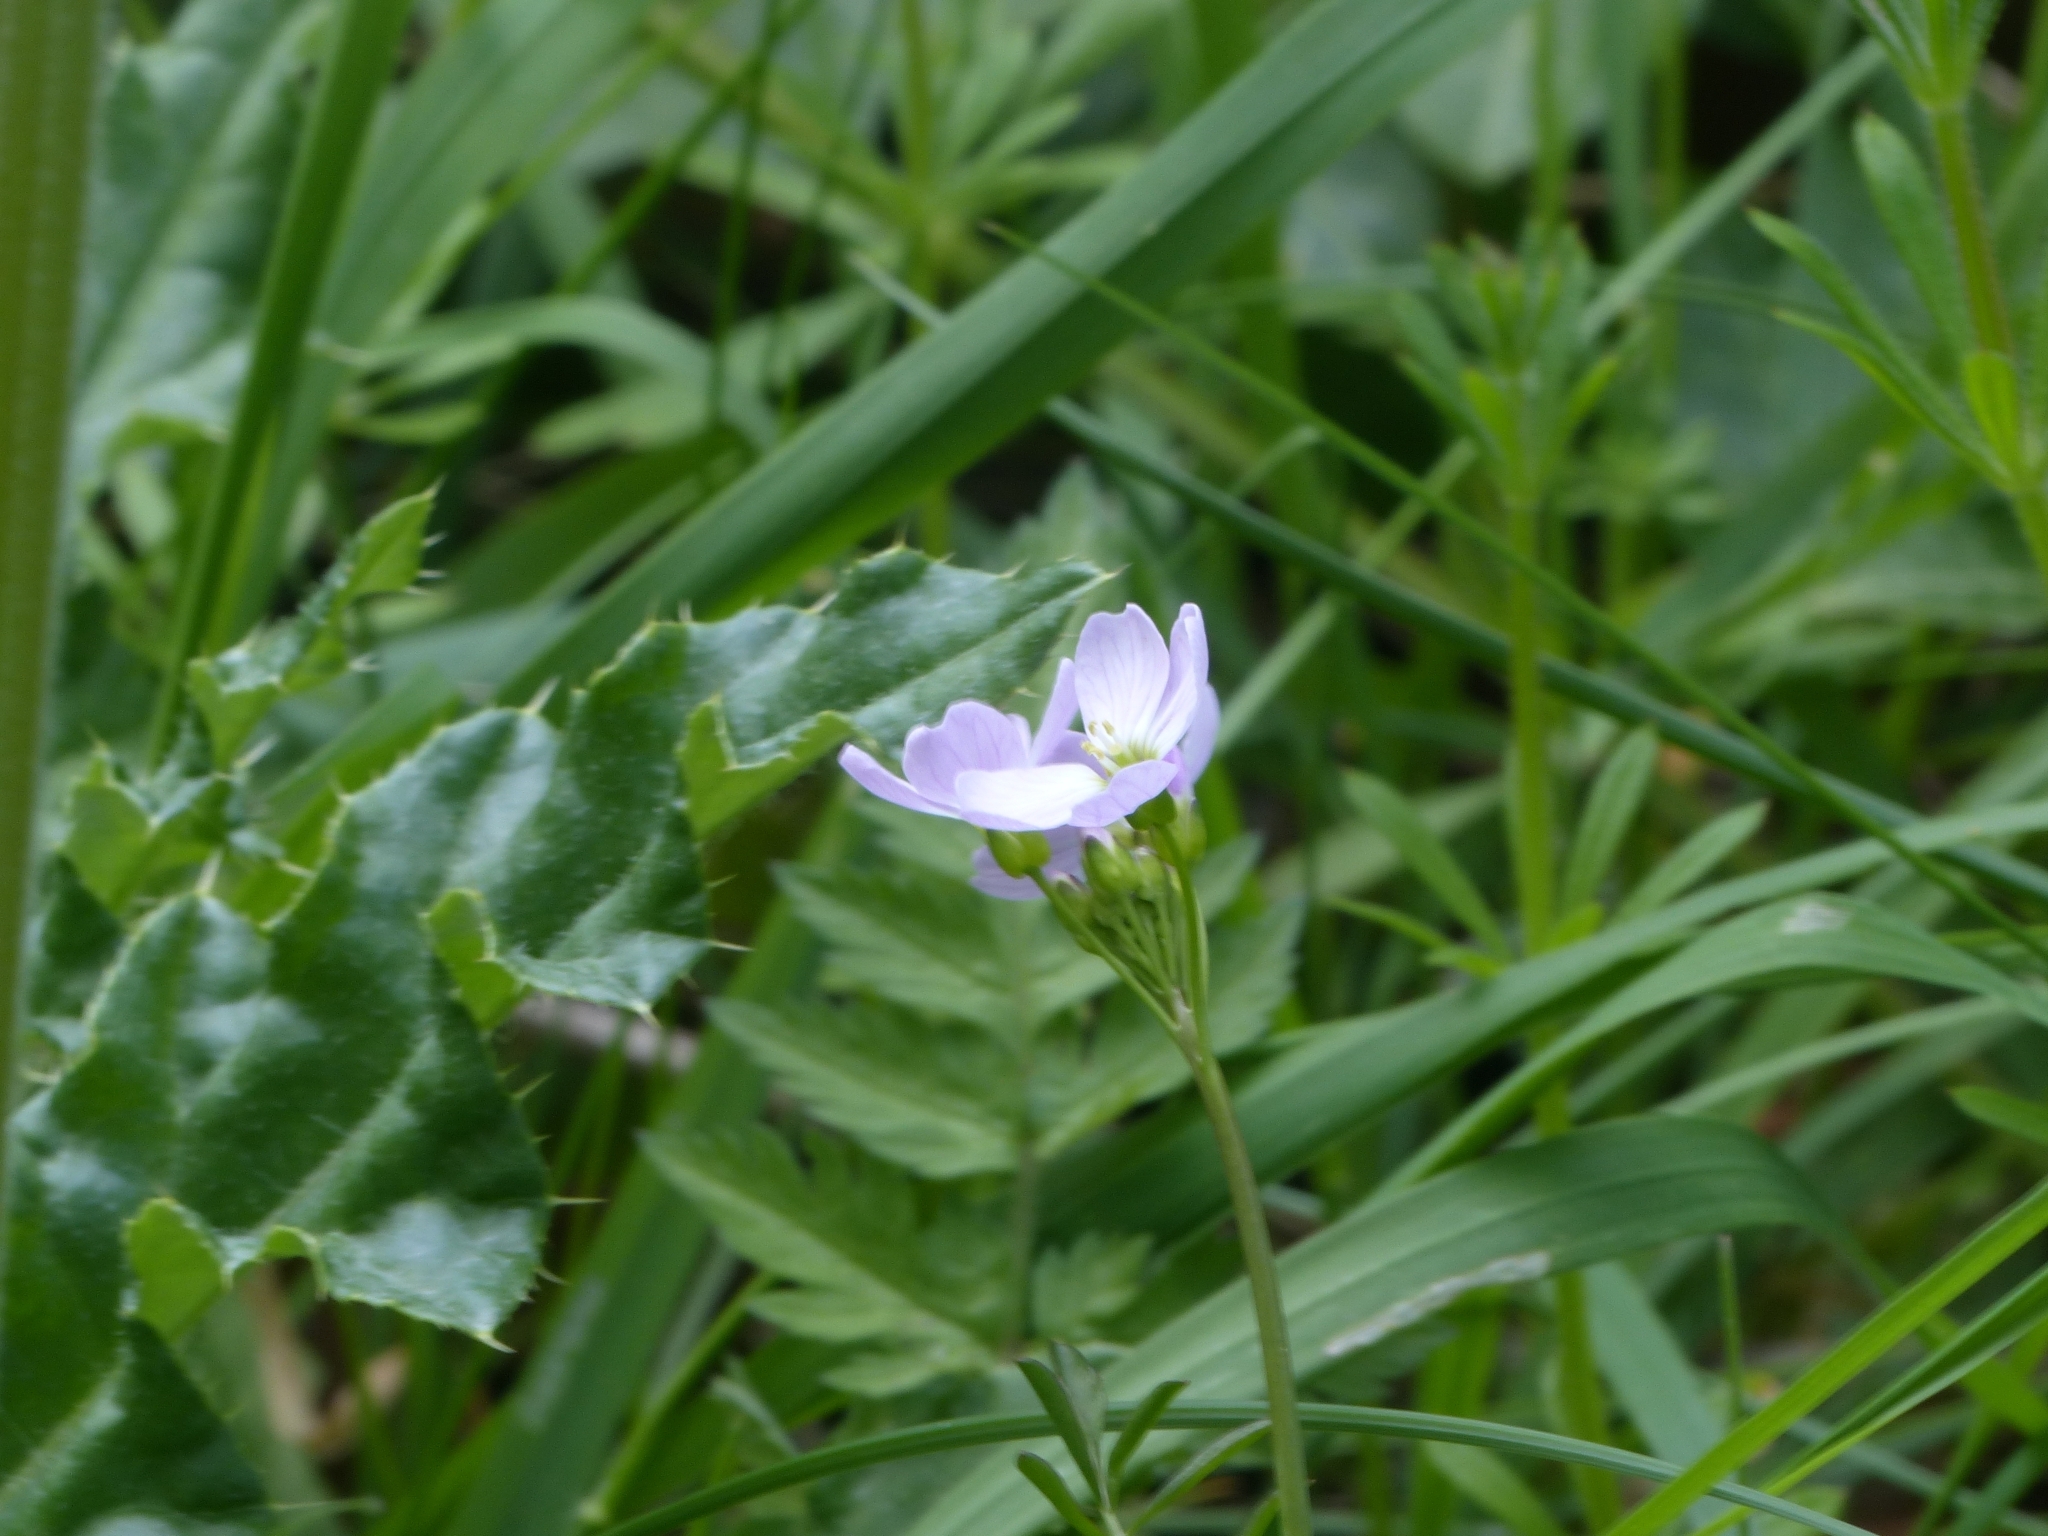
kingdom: Plantae
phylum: Tracheophyta
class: Magnoliopsida
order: Brassicales
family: Brassicaceae
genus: Cardamine
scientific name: Cardamine pratensis
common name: Cuckoo flower
